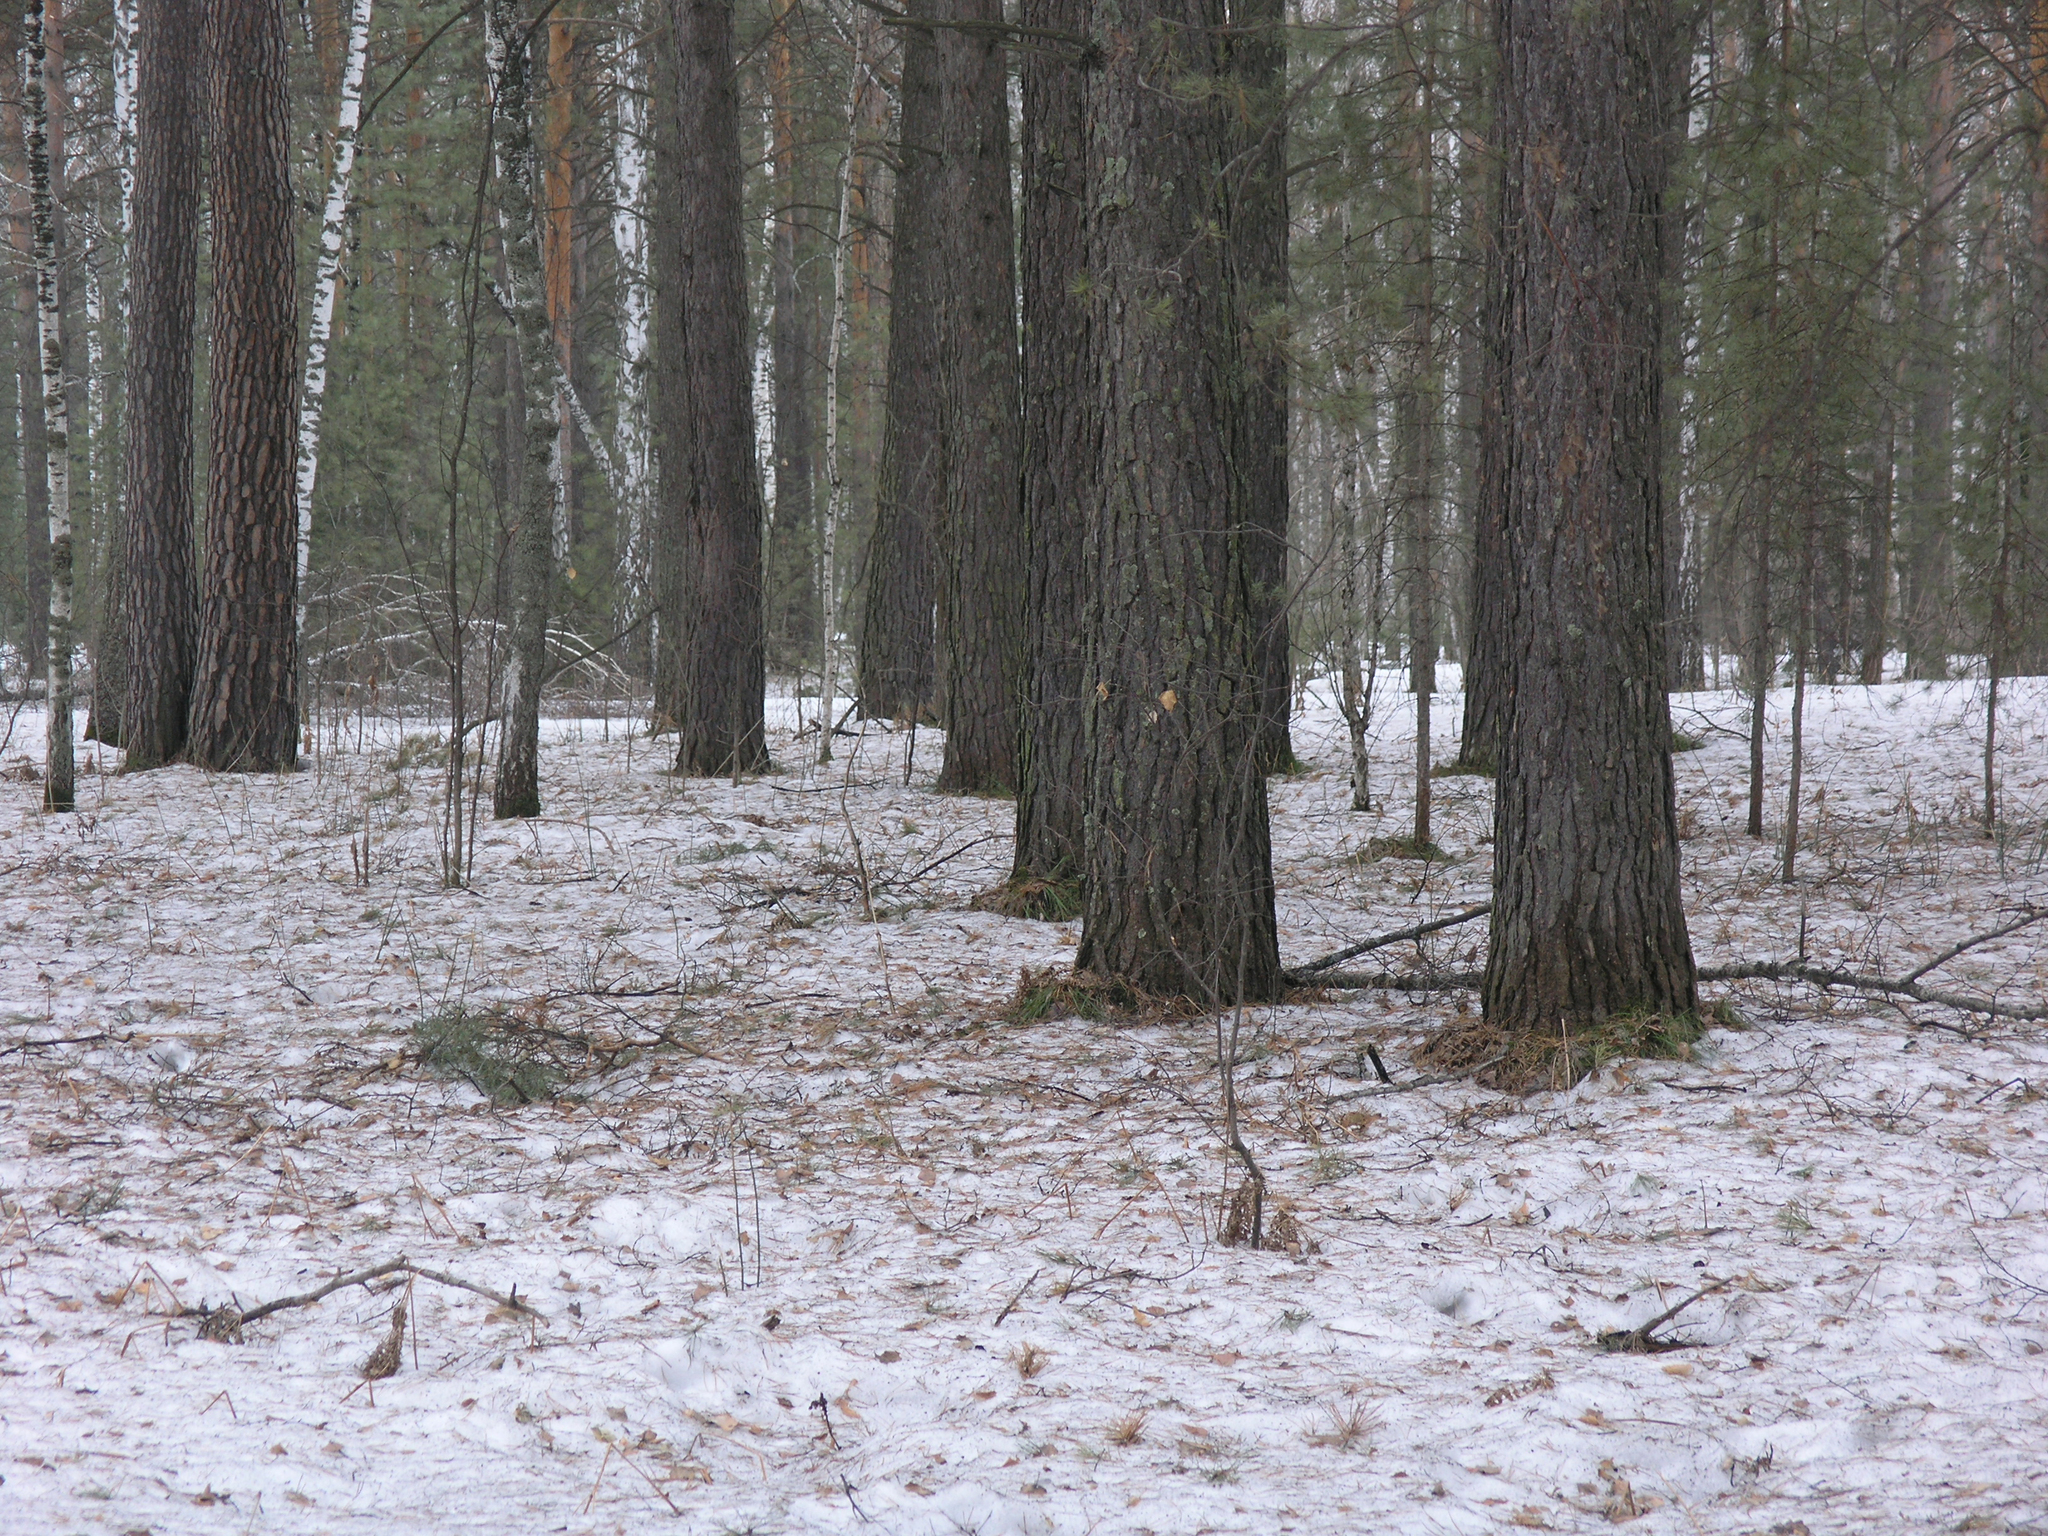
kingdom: Plantae
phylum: Tracheophyta
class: Pinopsida
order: Pinales
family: Pinaceae
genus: Pinus
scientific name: Pinus sylvestris
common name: Scots pine
